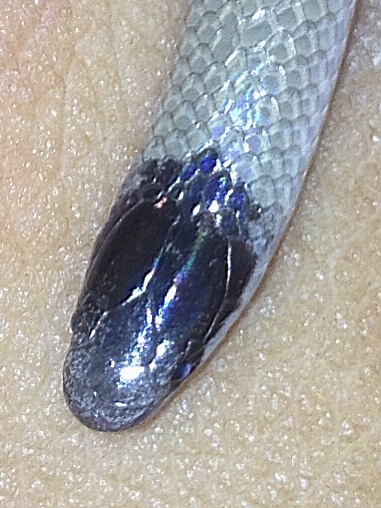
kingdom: Animalia
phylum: Chordata
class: Squamata
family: Colubridae
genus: Tantilla
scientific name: Tantilla nigriceps
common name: Plains blackhead snake
